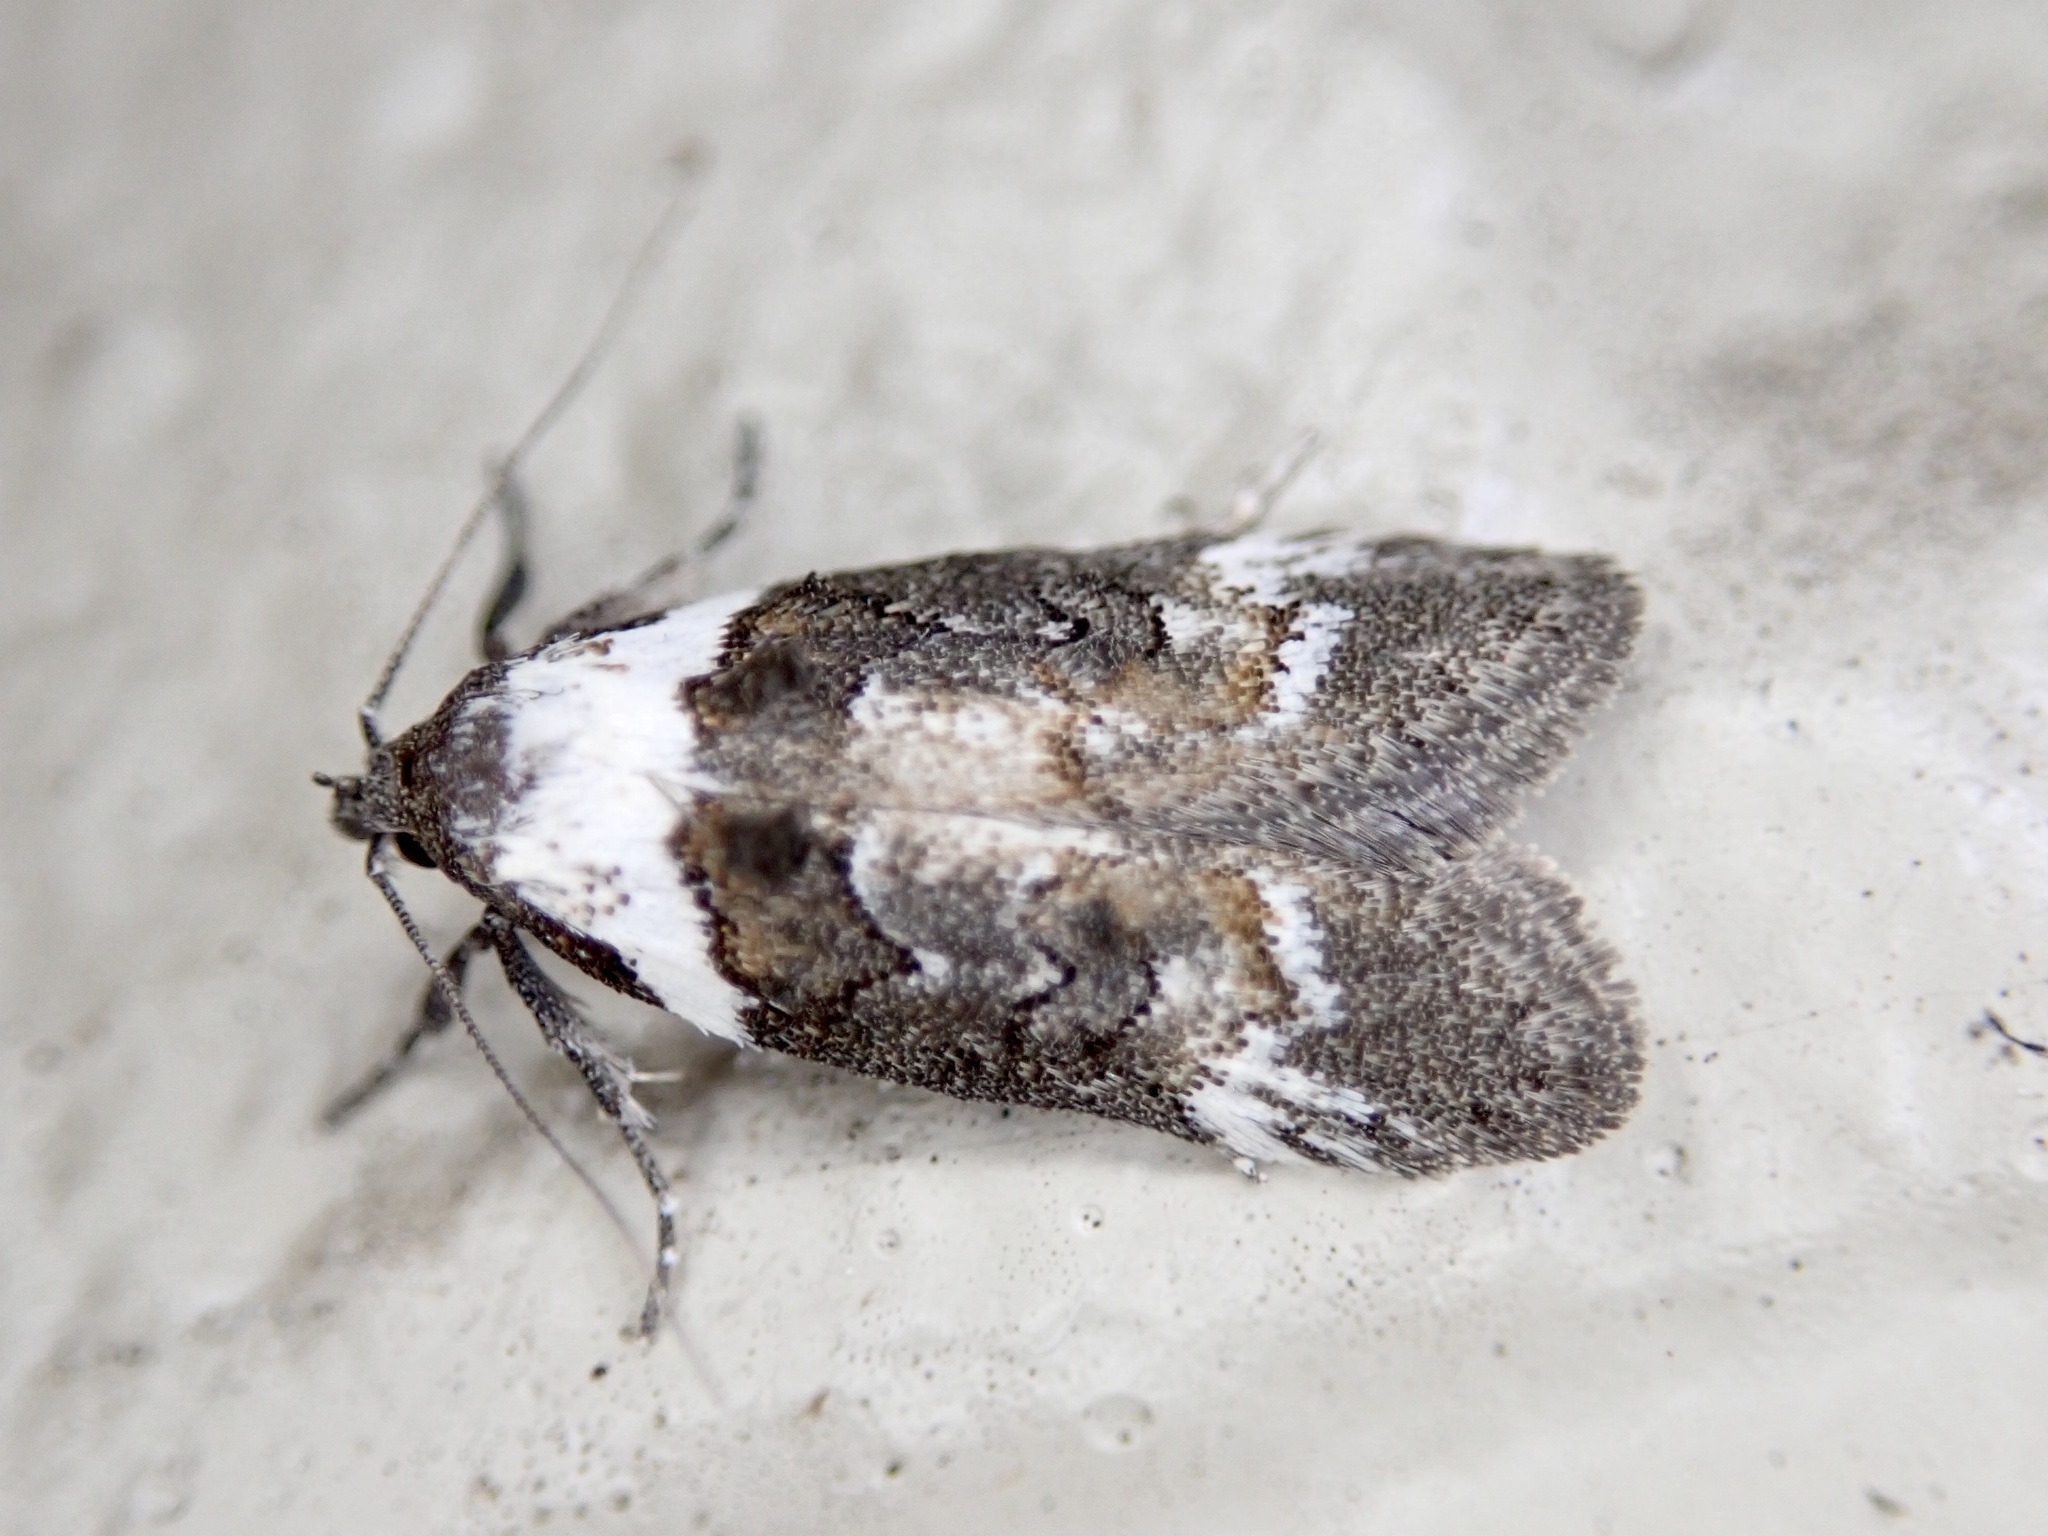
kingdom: Animalia
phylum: Arthropoda
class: Insecta
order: Lepidoptera
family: Oecophoridae
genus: Trachypepla
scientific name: Trachypepla conspicuella
